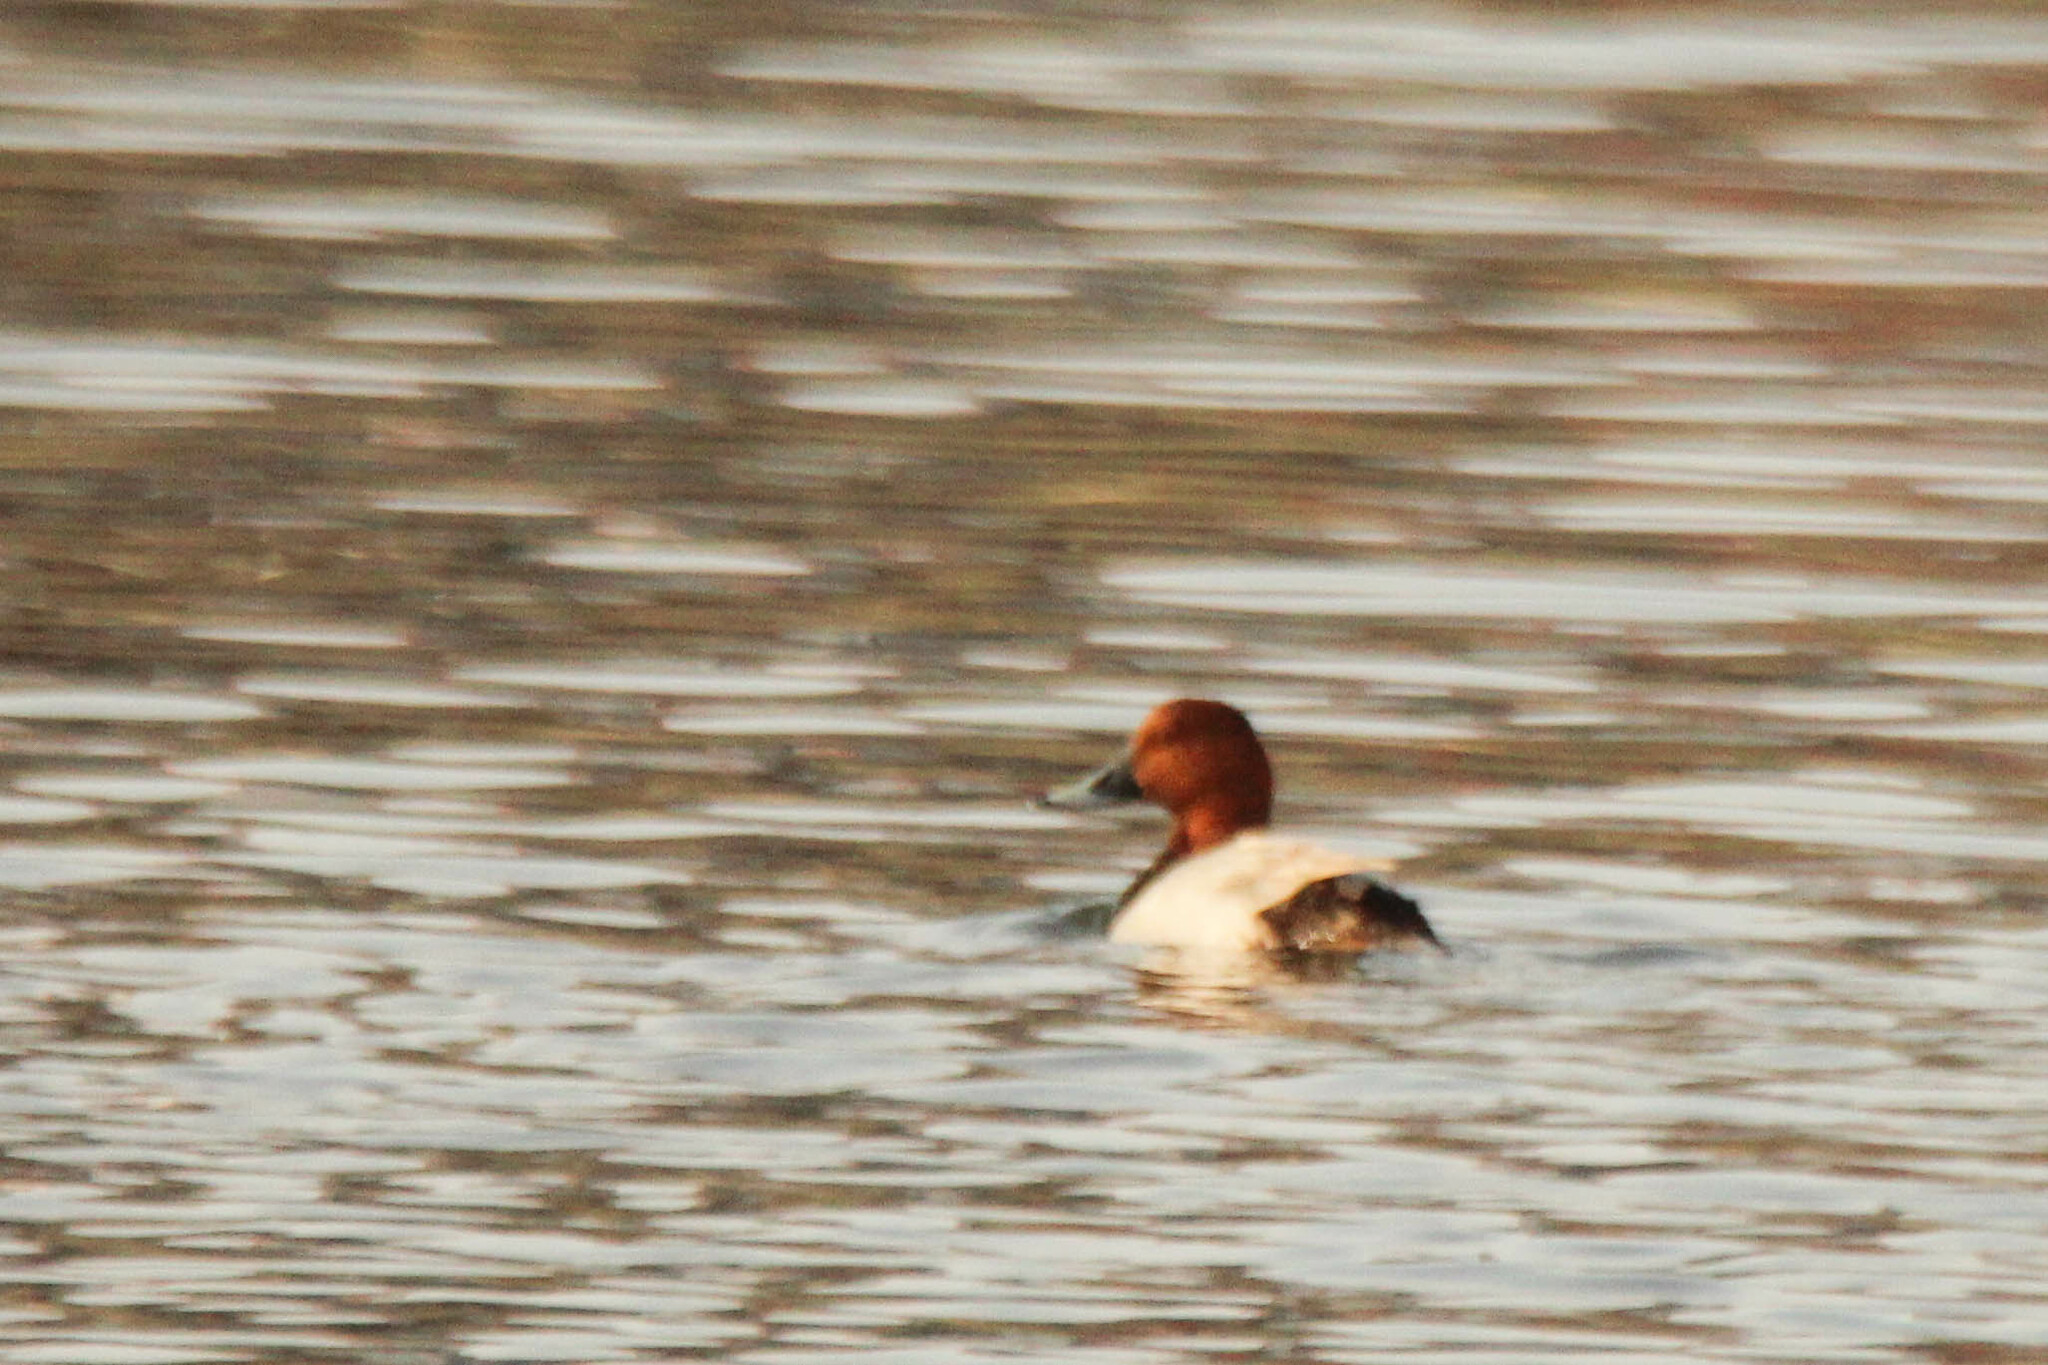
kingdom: Animalia
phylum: Chordata
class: Aves
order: Anseriformes
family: Anatidae
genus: Aythya
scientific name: Aythya ferina
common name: Common pochard
